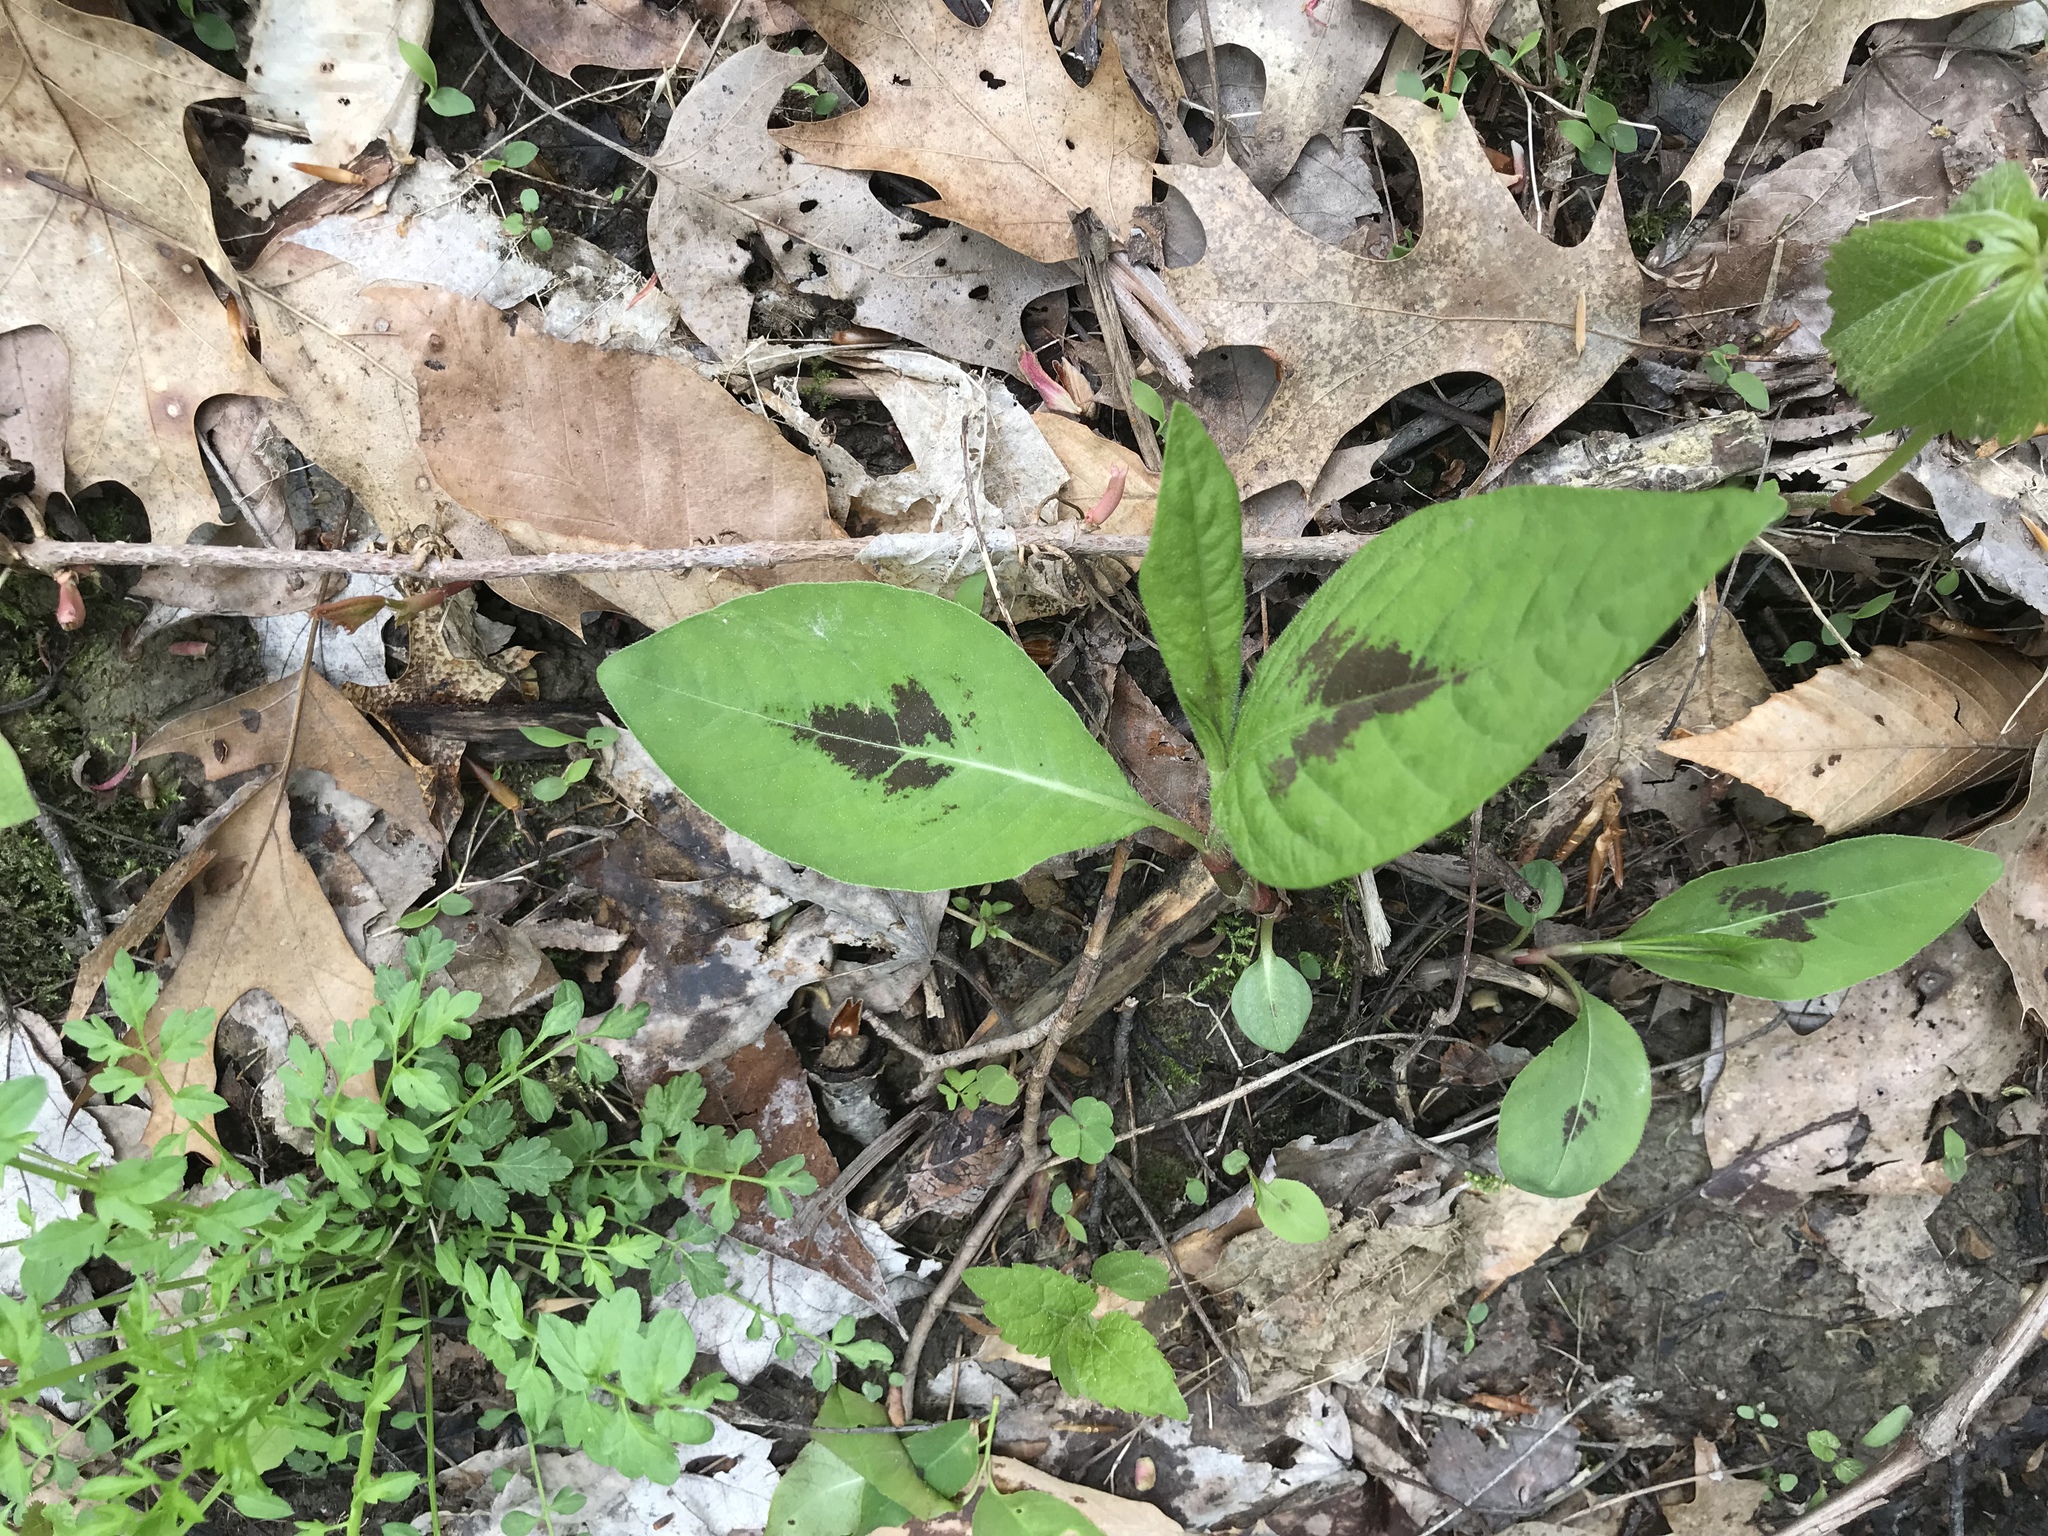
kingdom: Plantae
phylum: Tracheophyta
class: Magnoliopsida
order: Caryophyllales
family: Polygonaceae
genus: Persicaria
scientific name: Persicaria virginiana
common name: Jumpseed
